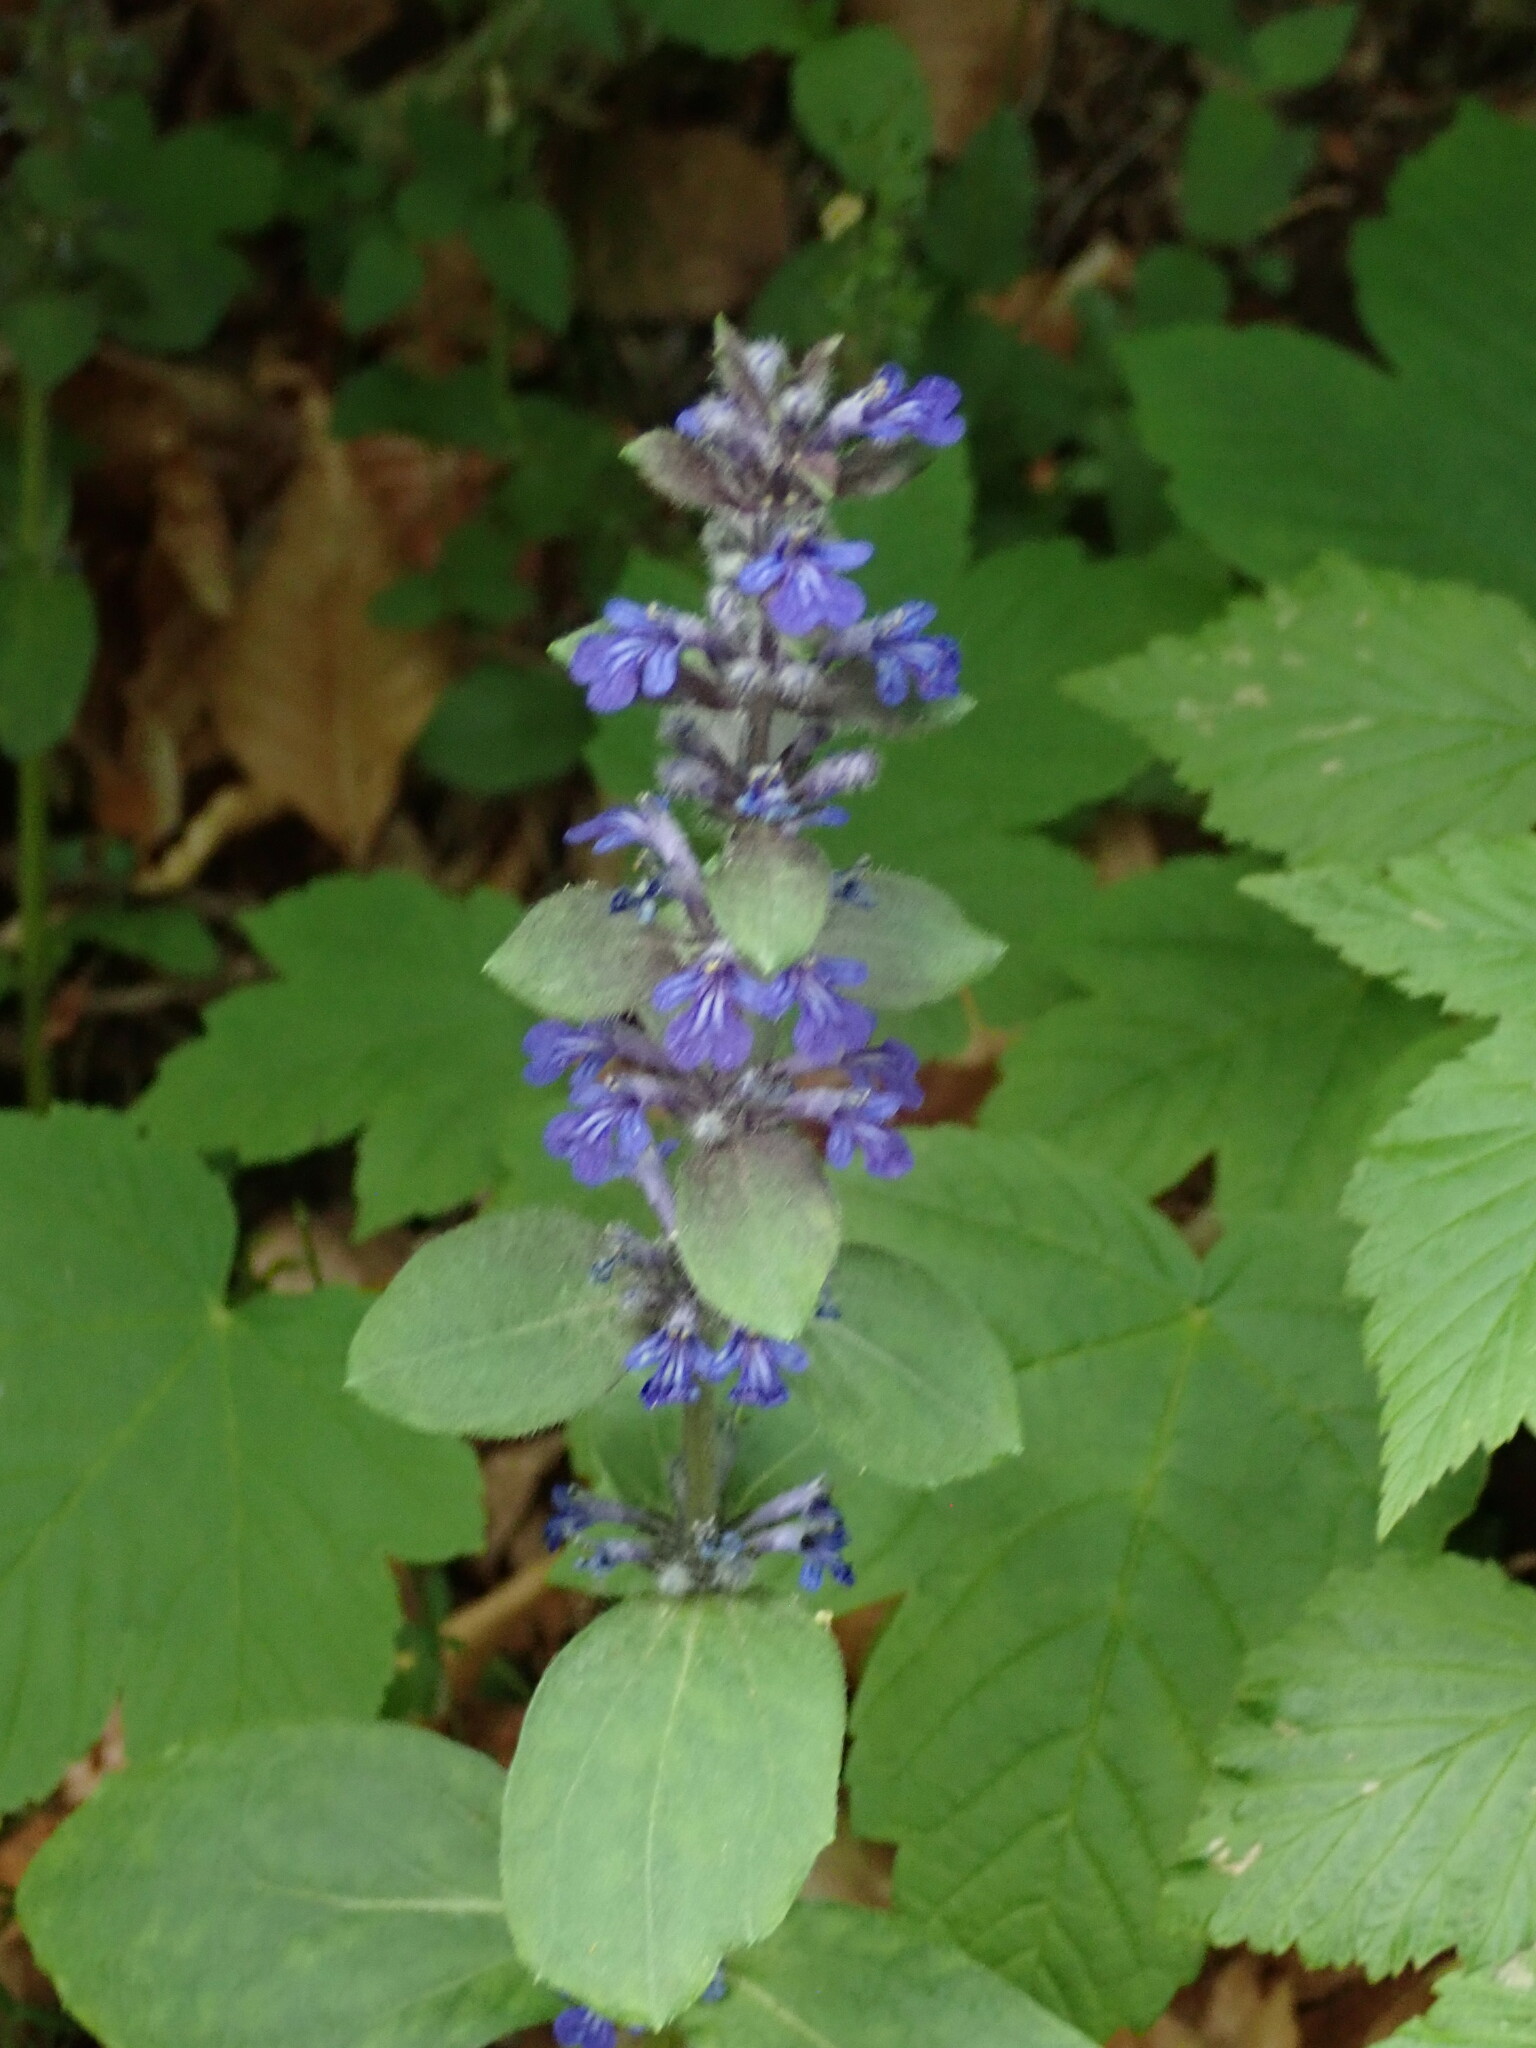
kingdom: Plantae
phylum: Tracheophyta
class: Magnoliopsida
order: Lamiales
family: Lamiaceae
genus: Ajuga
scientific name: Ajuga reptans
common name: Bugle
